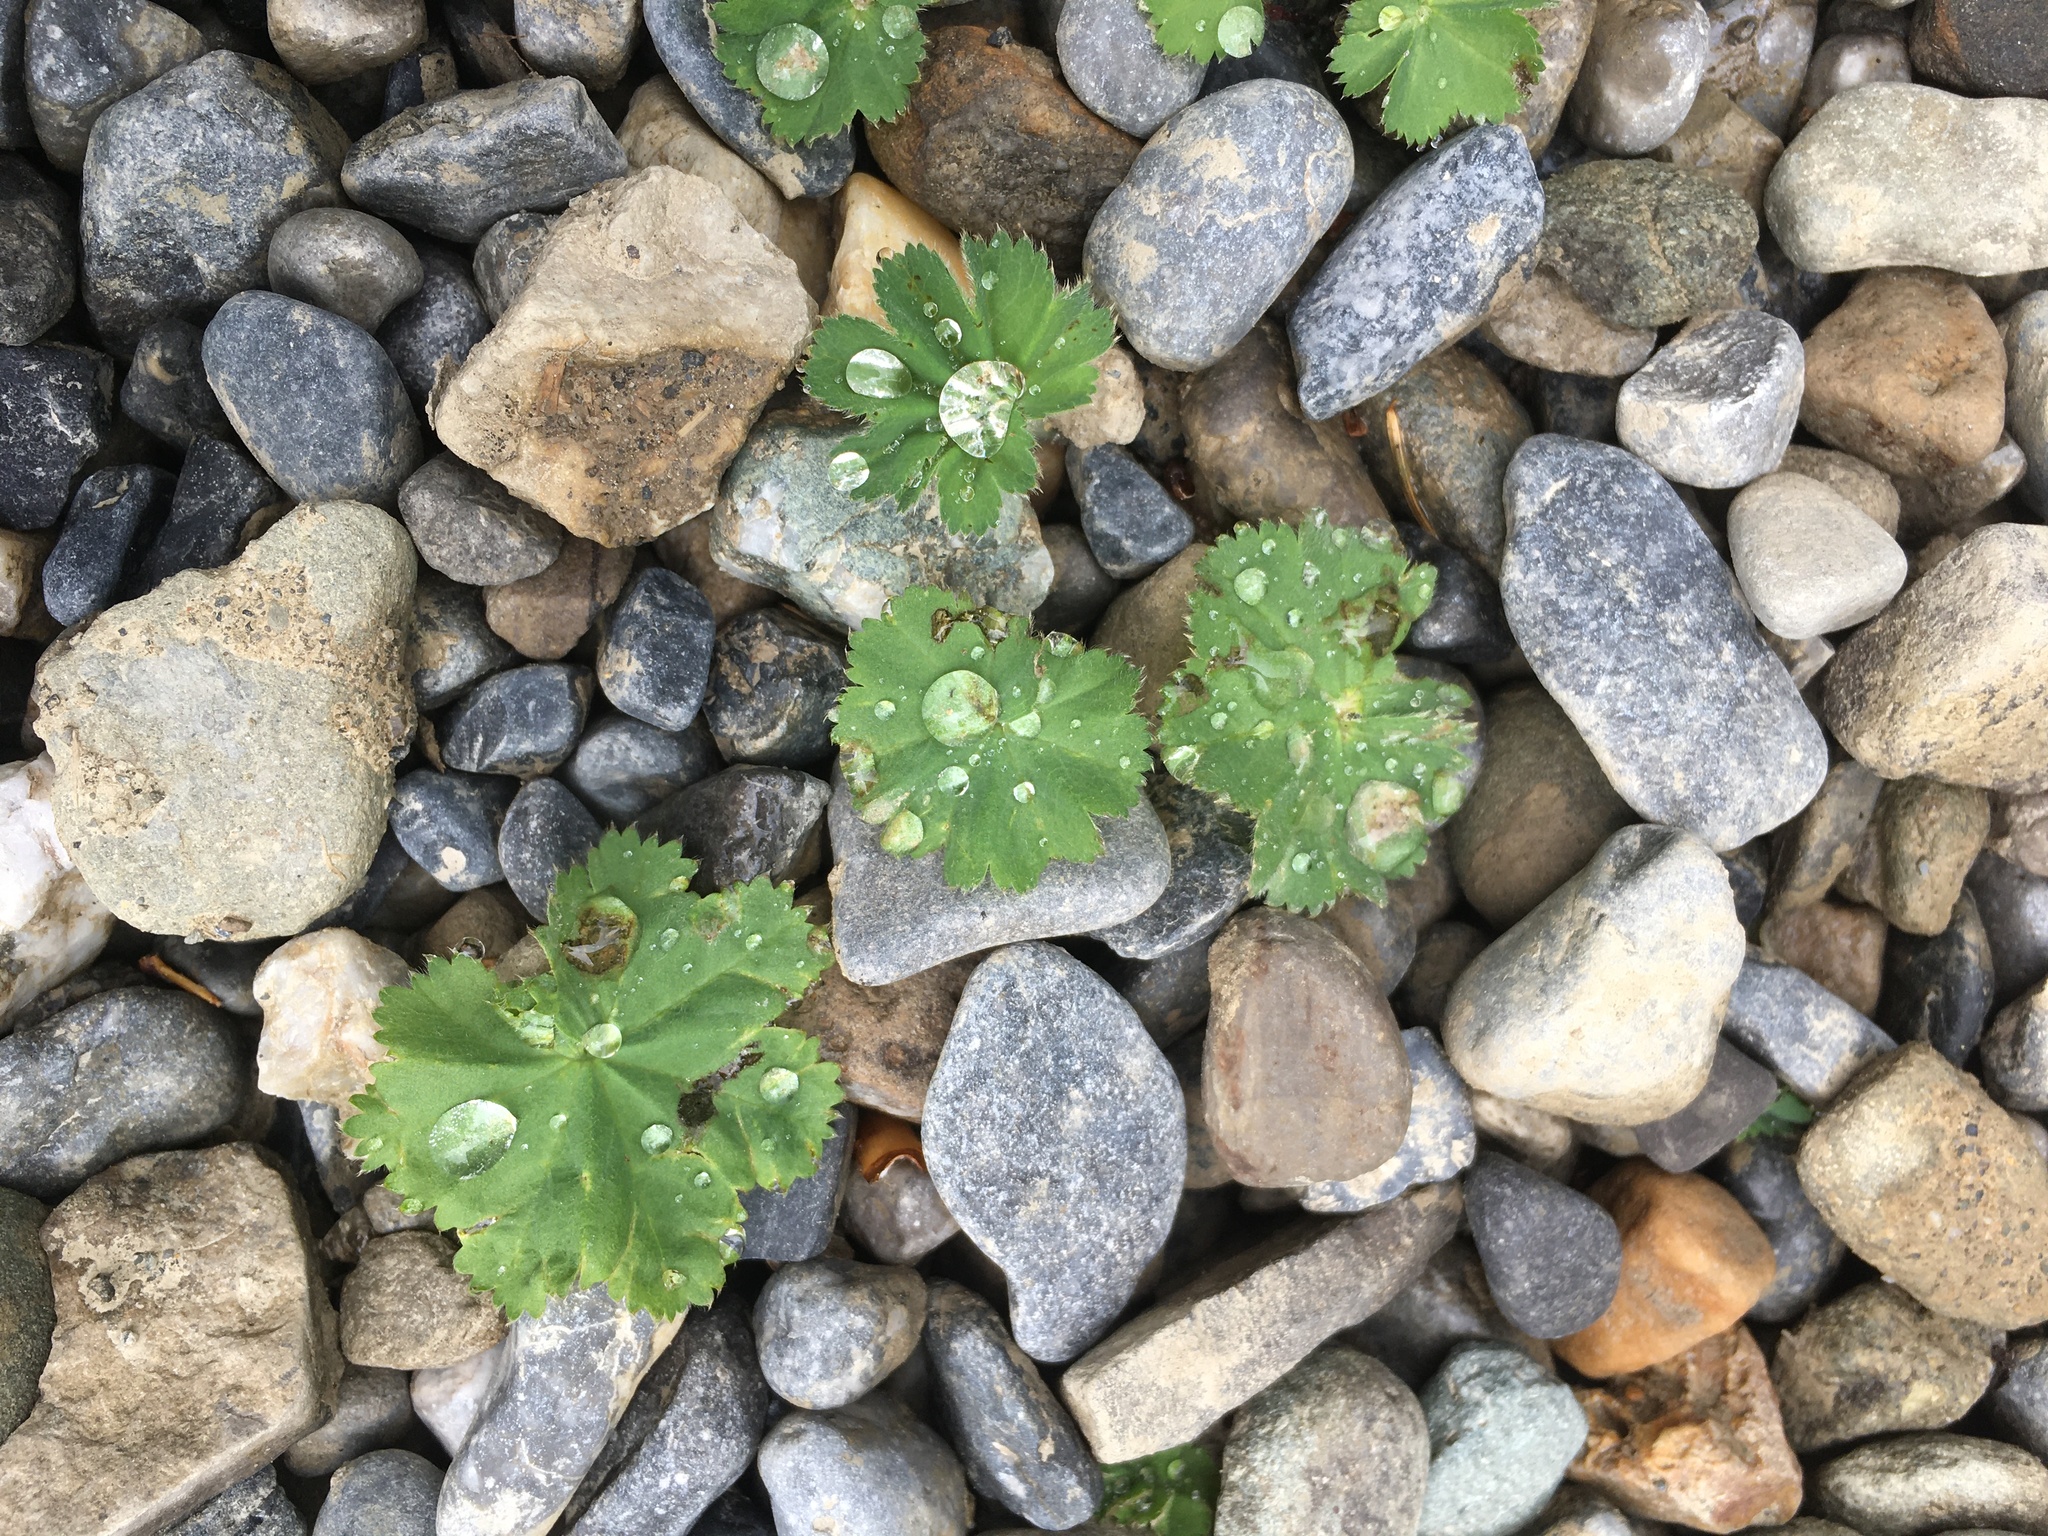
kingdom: Plantae
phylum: Tracheophyta
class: Magnoliopsida
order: Rosales
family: Rosaceae
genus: Alchemilla
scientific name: Alchemilla mollis
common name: Lady's-mantle
